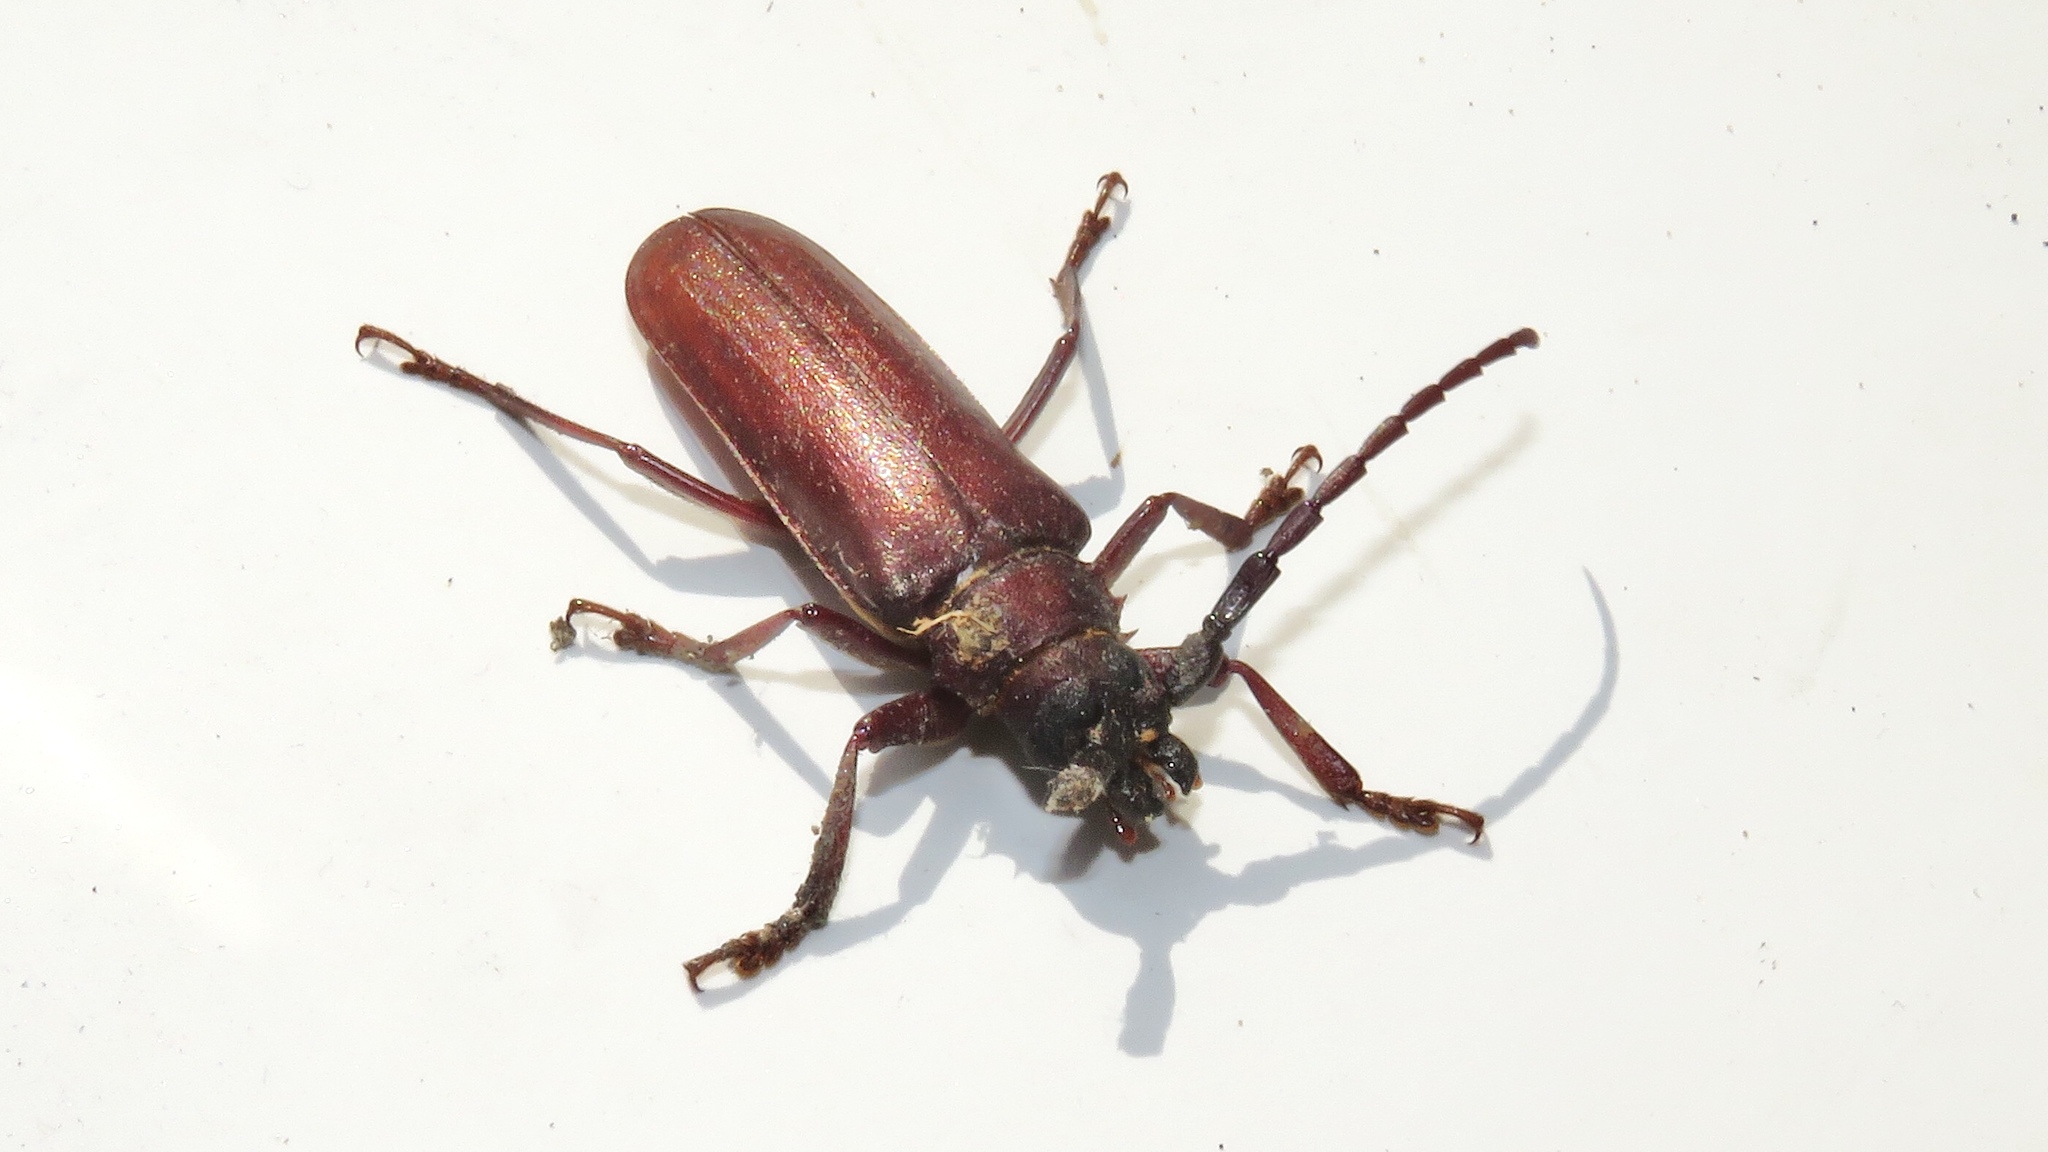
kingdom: Animalia
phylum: Arthropoda
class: Insecta
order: Coleoptera
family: Cerambycidae
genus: Orthosoma
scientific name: Orthosoma brunneum
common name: Brown prionid beetle
